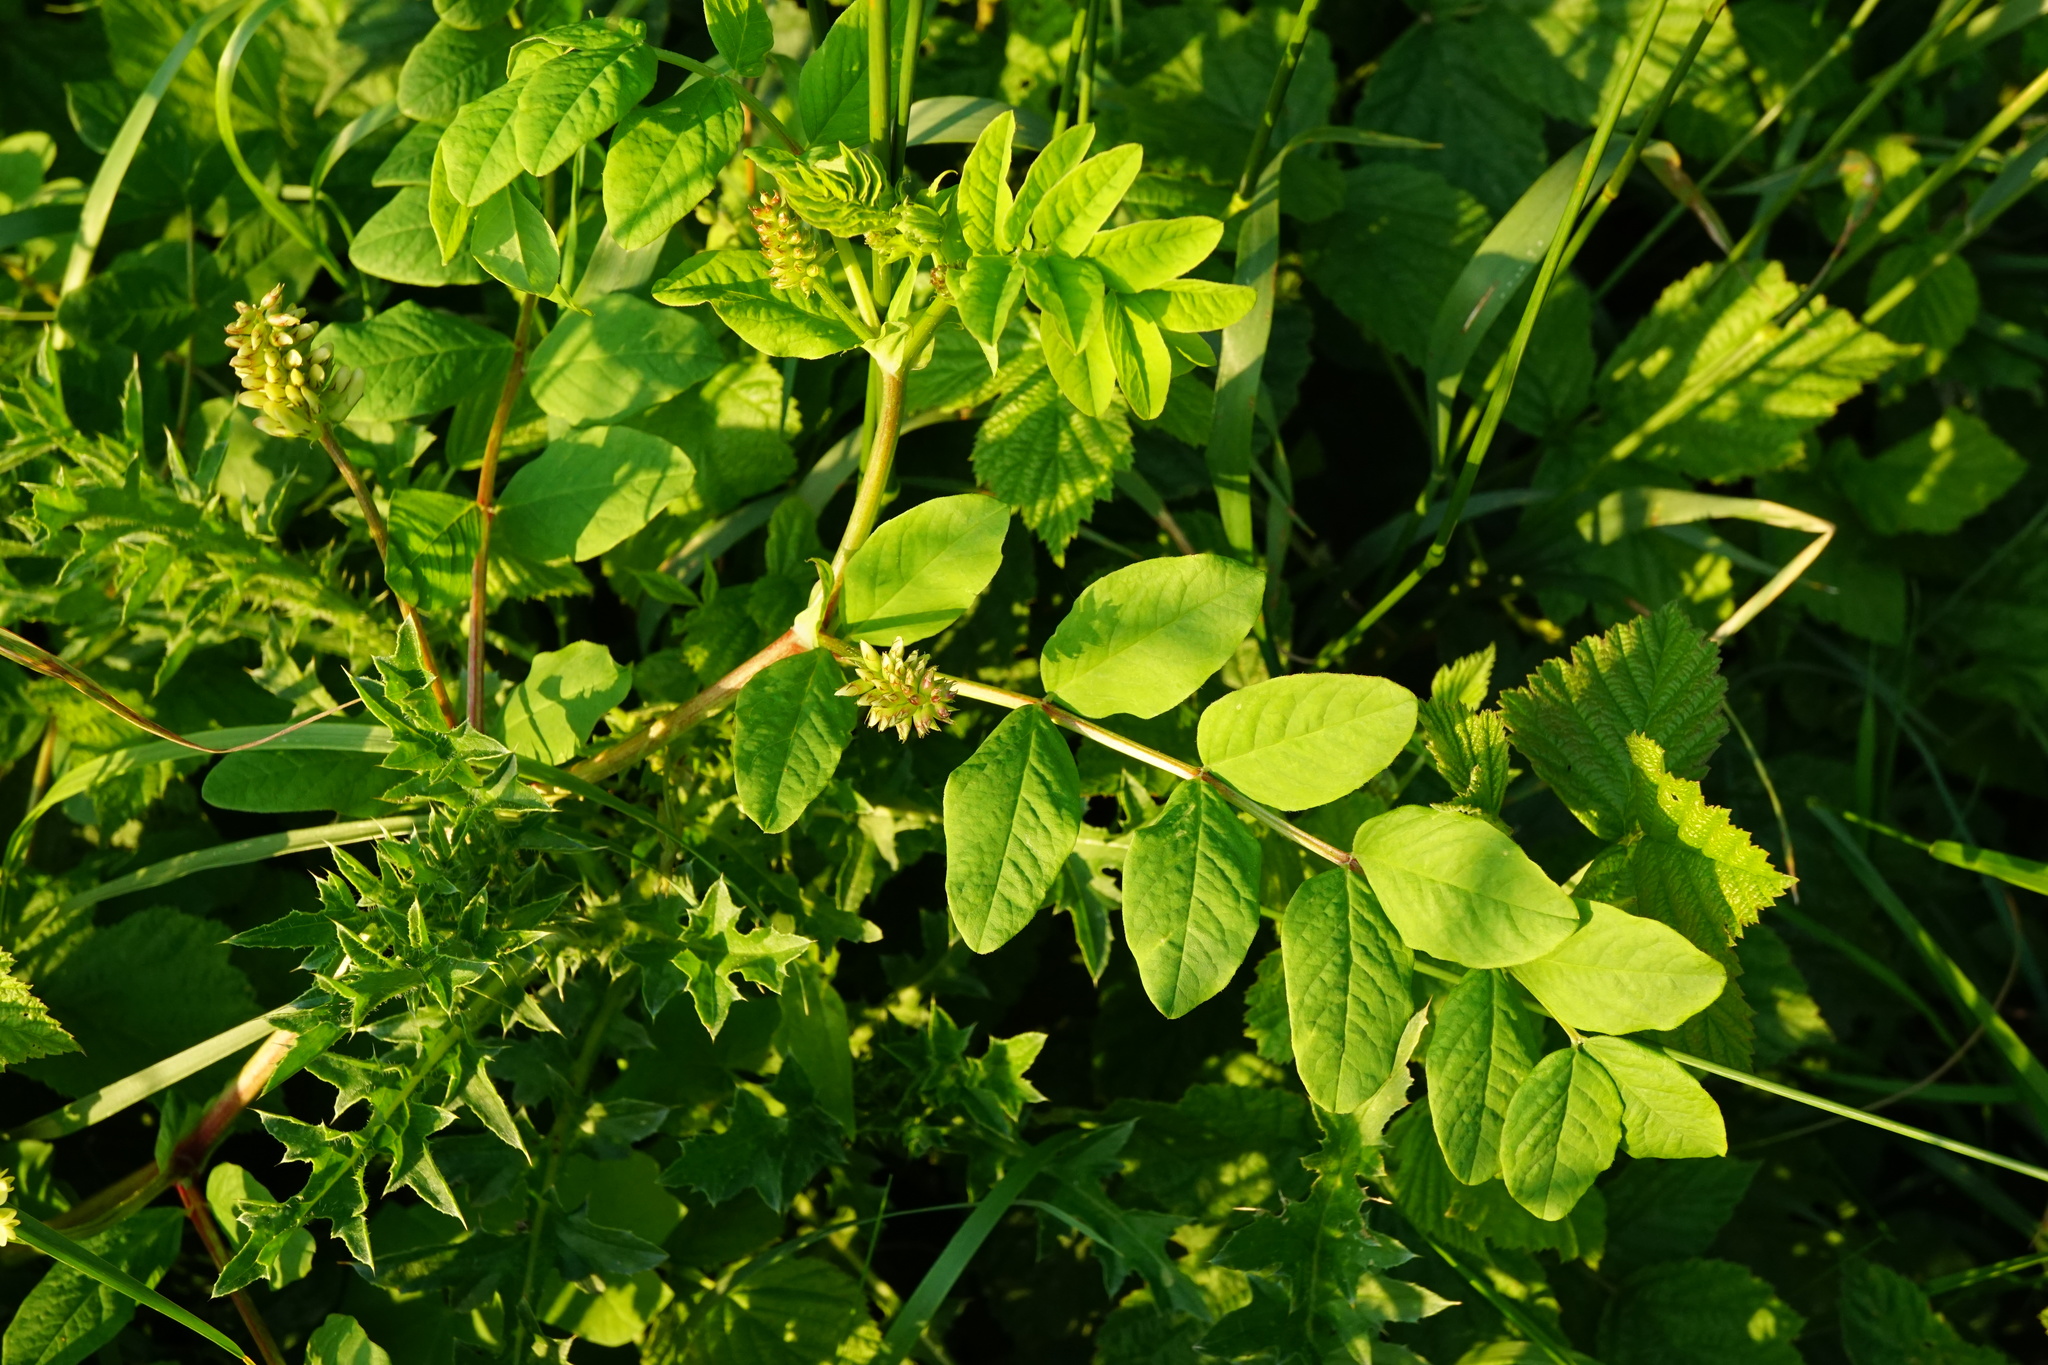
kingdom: Plantae
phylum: Tracheophyta
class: Magnoliopsida
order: Fabales
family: Fabaceae
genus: Astragalus
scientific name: Astragalus glycyphyllos
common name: Wild liquorice
